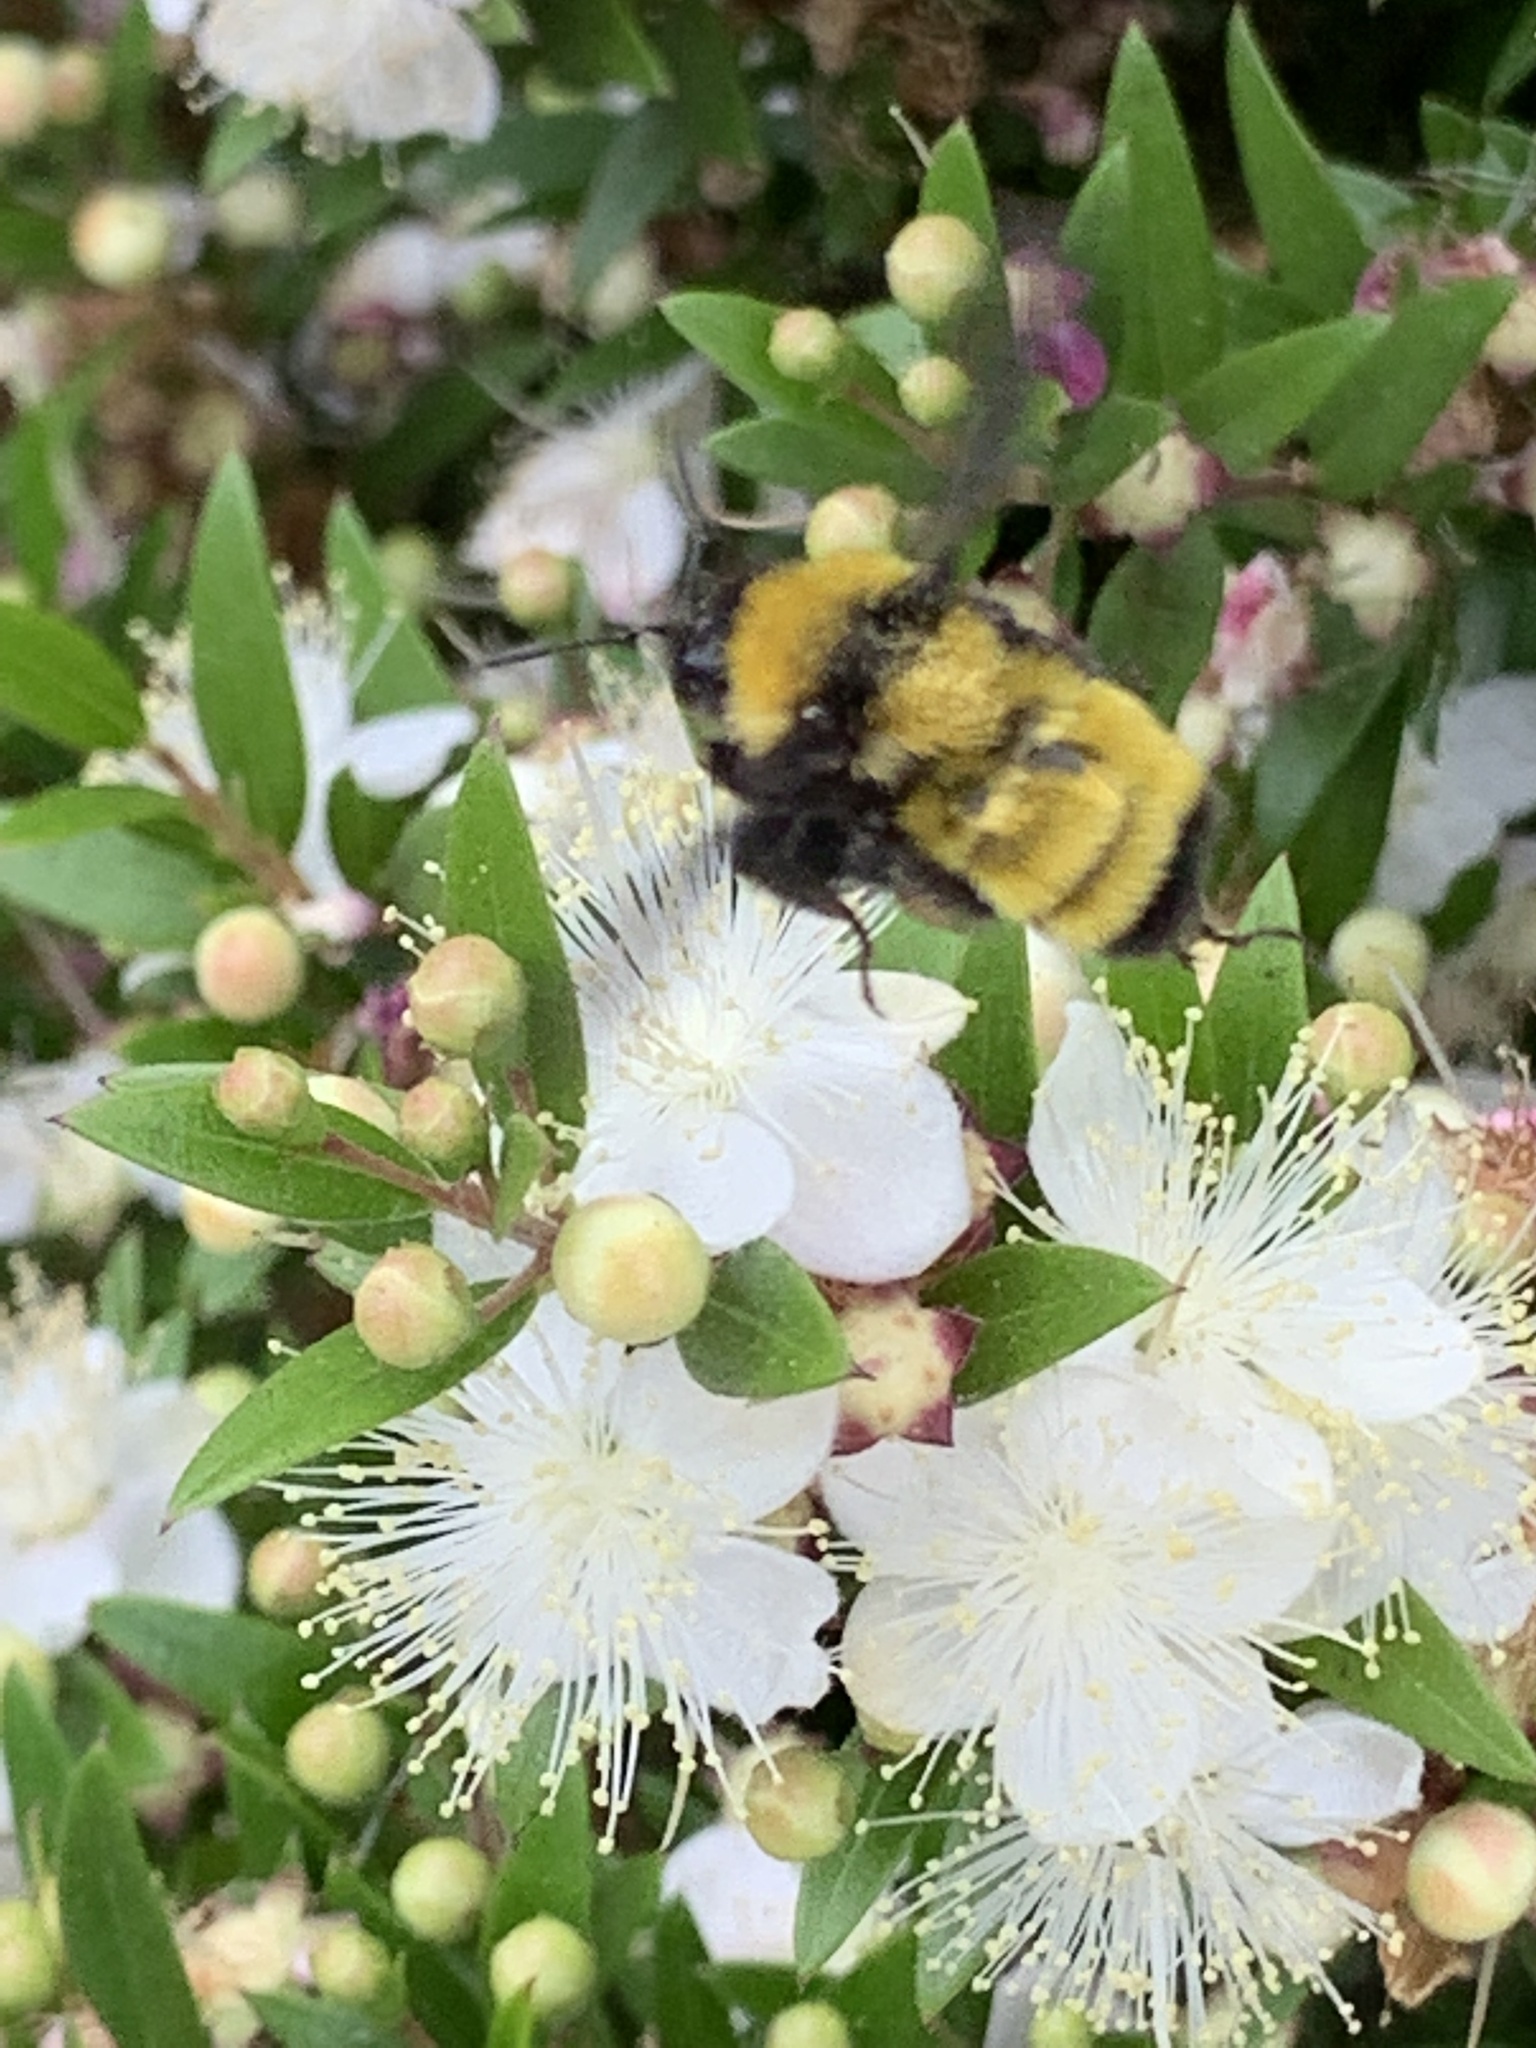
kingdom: Animalia
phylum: Arthropoda
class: Insecta
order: Hymenoptera
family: Apidae
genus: Bombus
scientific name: Bombus sonorus
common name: Sonoran bumble bee
